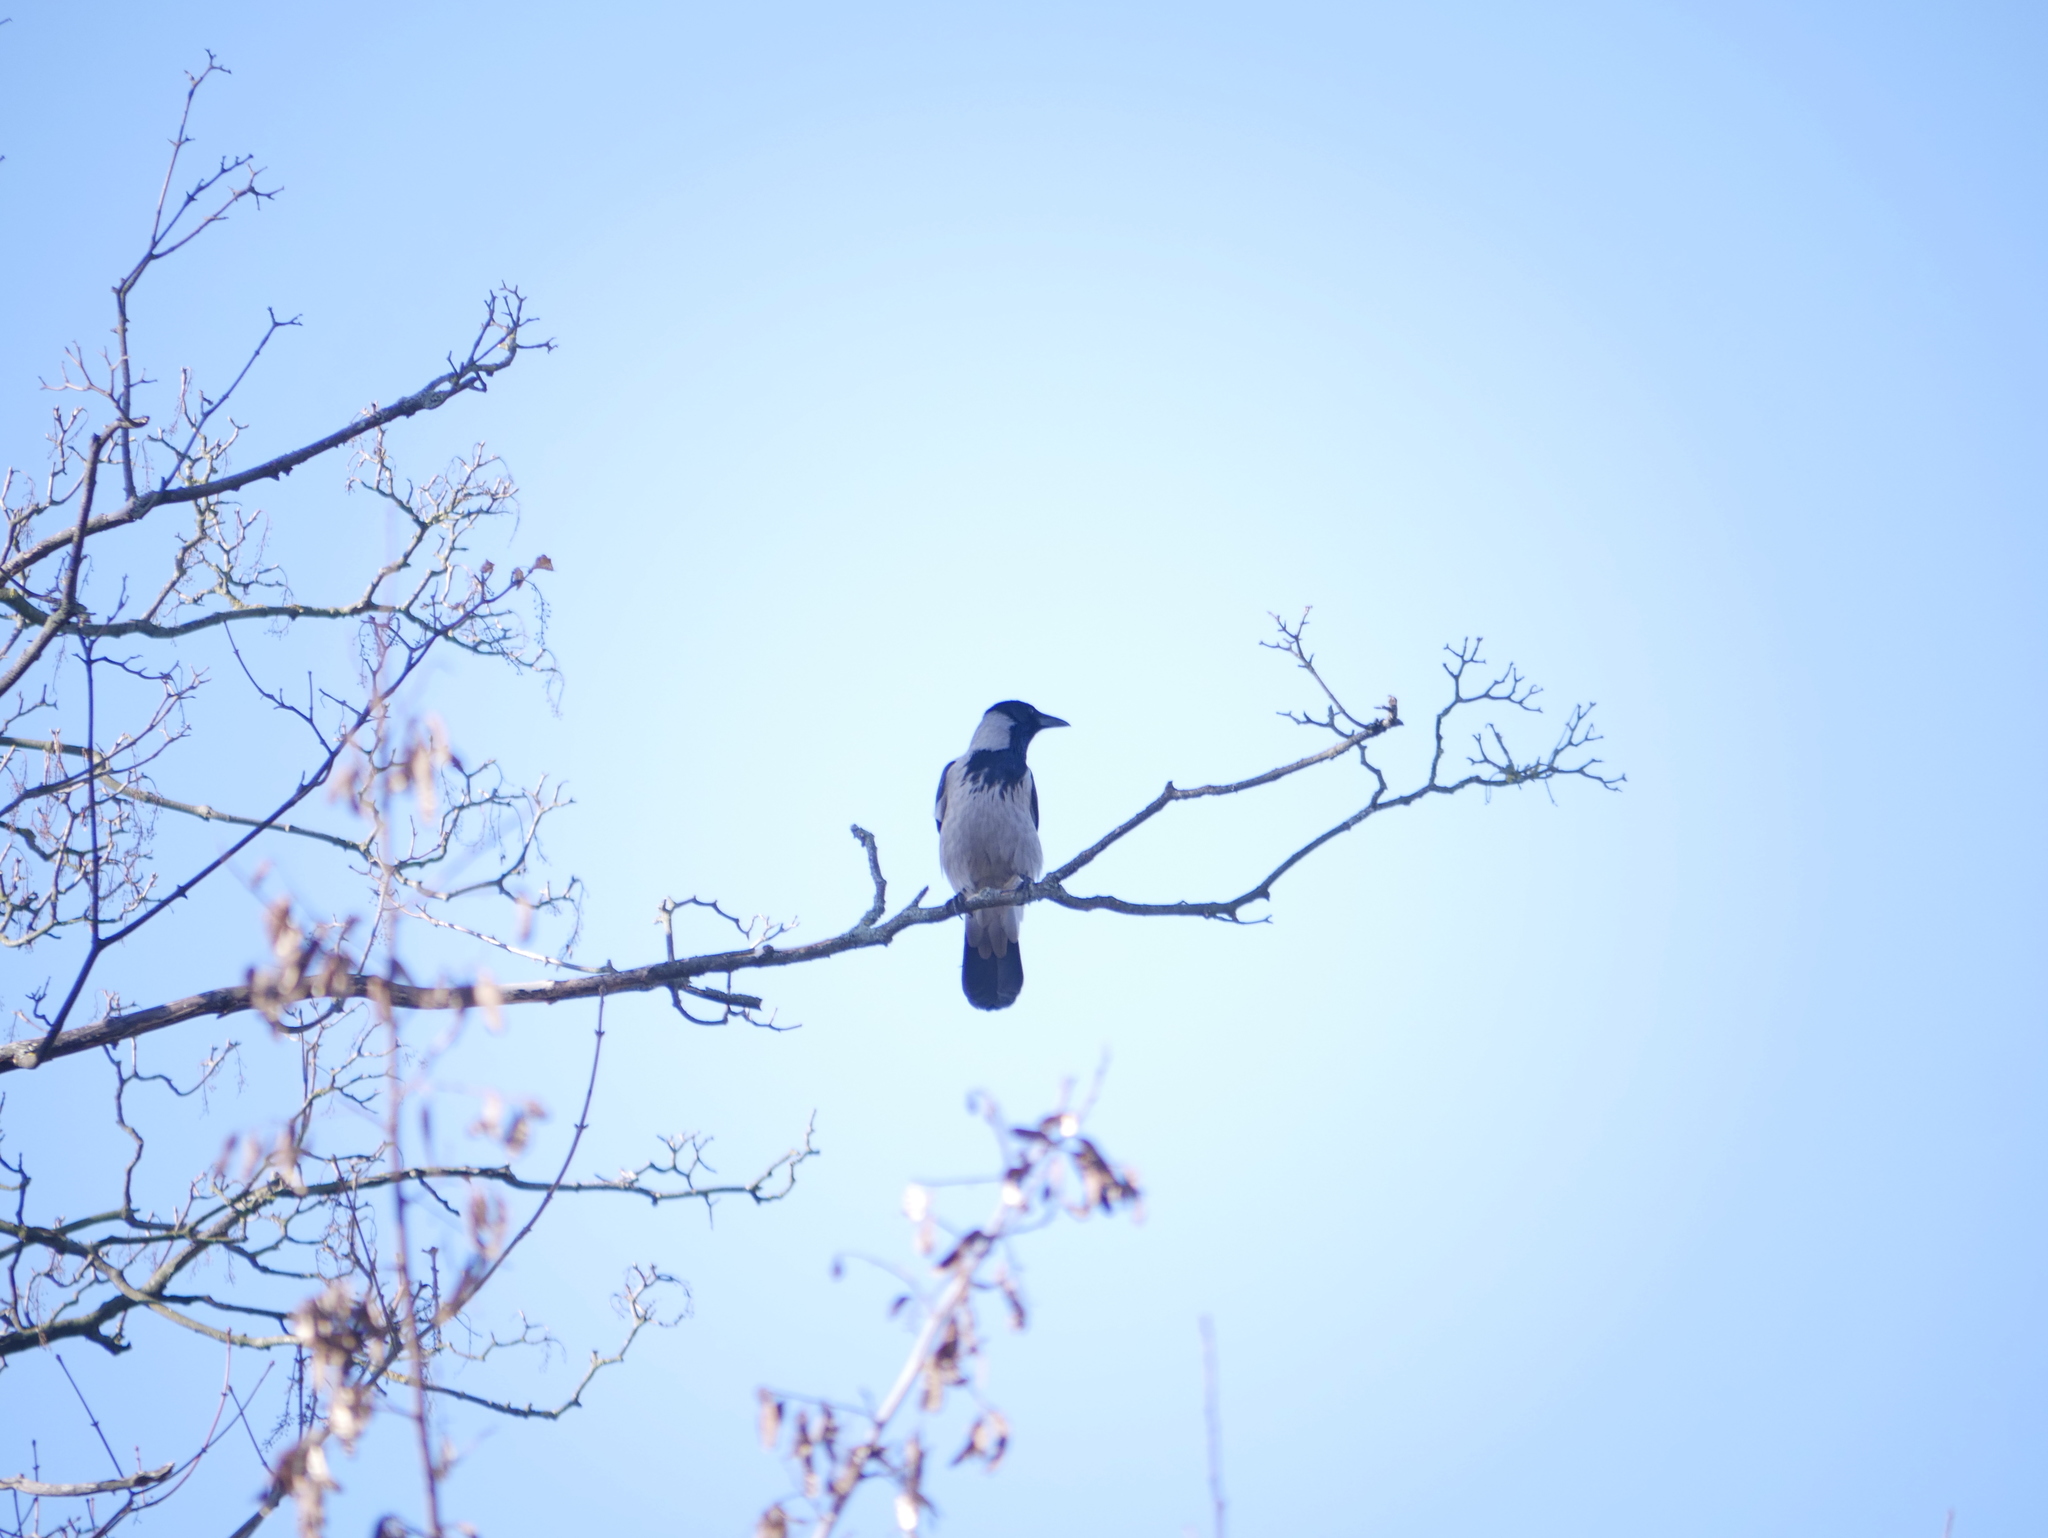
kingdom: Animalia
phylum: Chordata
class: Aves
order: Passeriformes
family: Corvidae
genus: Corvus
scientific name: Corvus cornix
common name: Hooded crow
